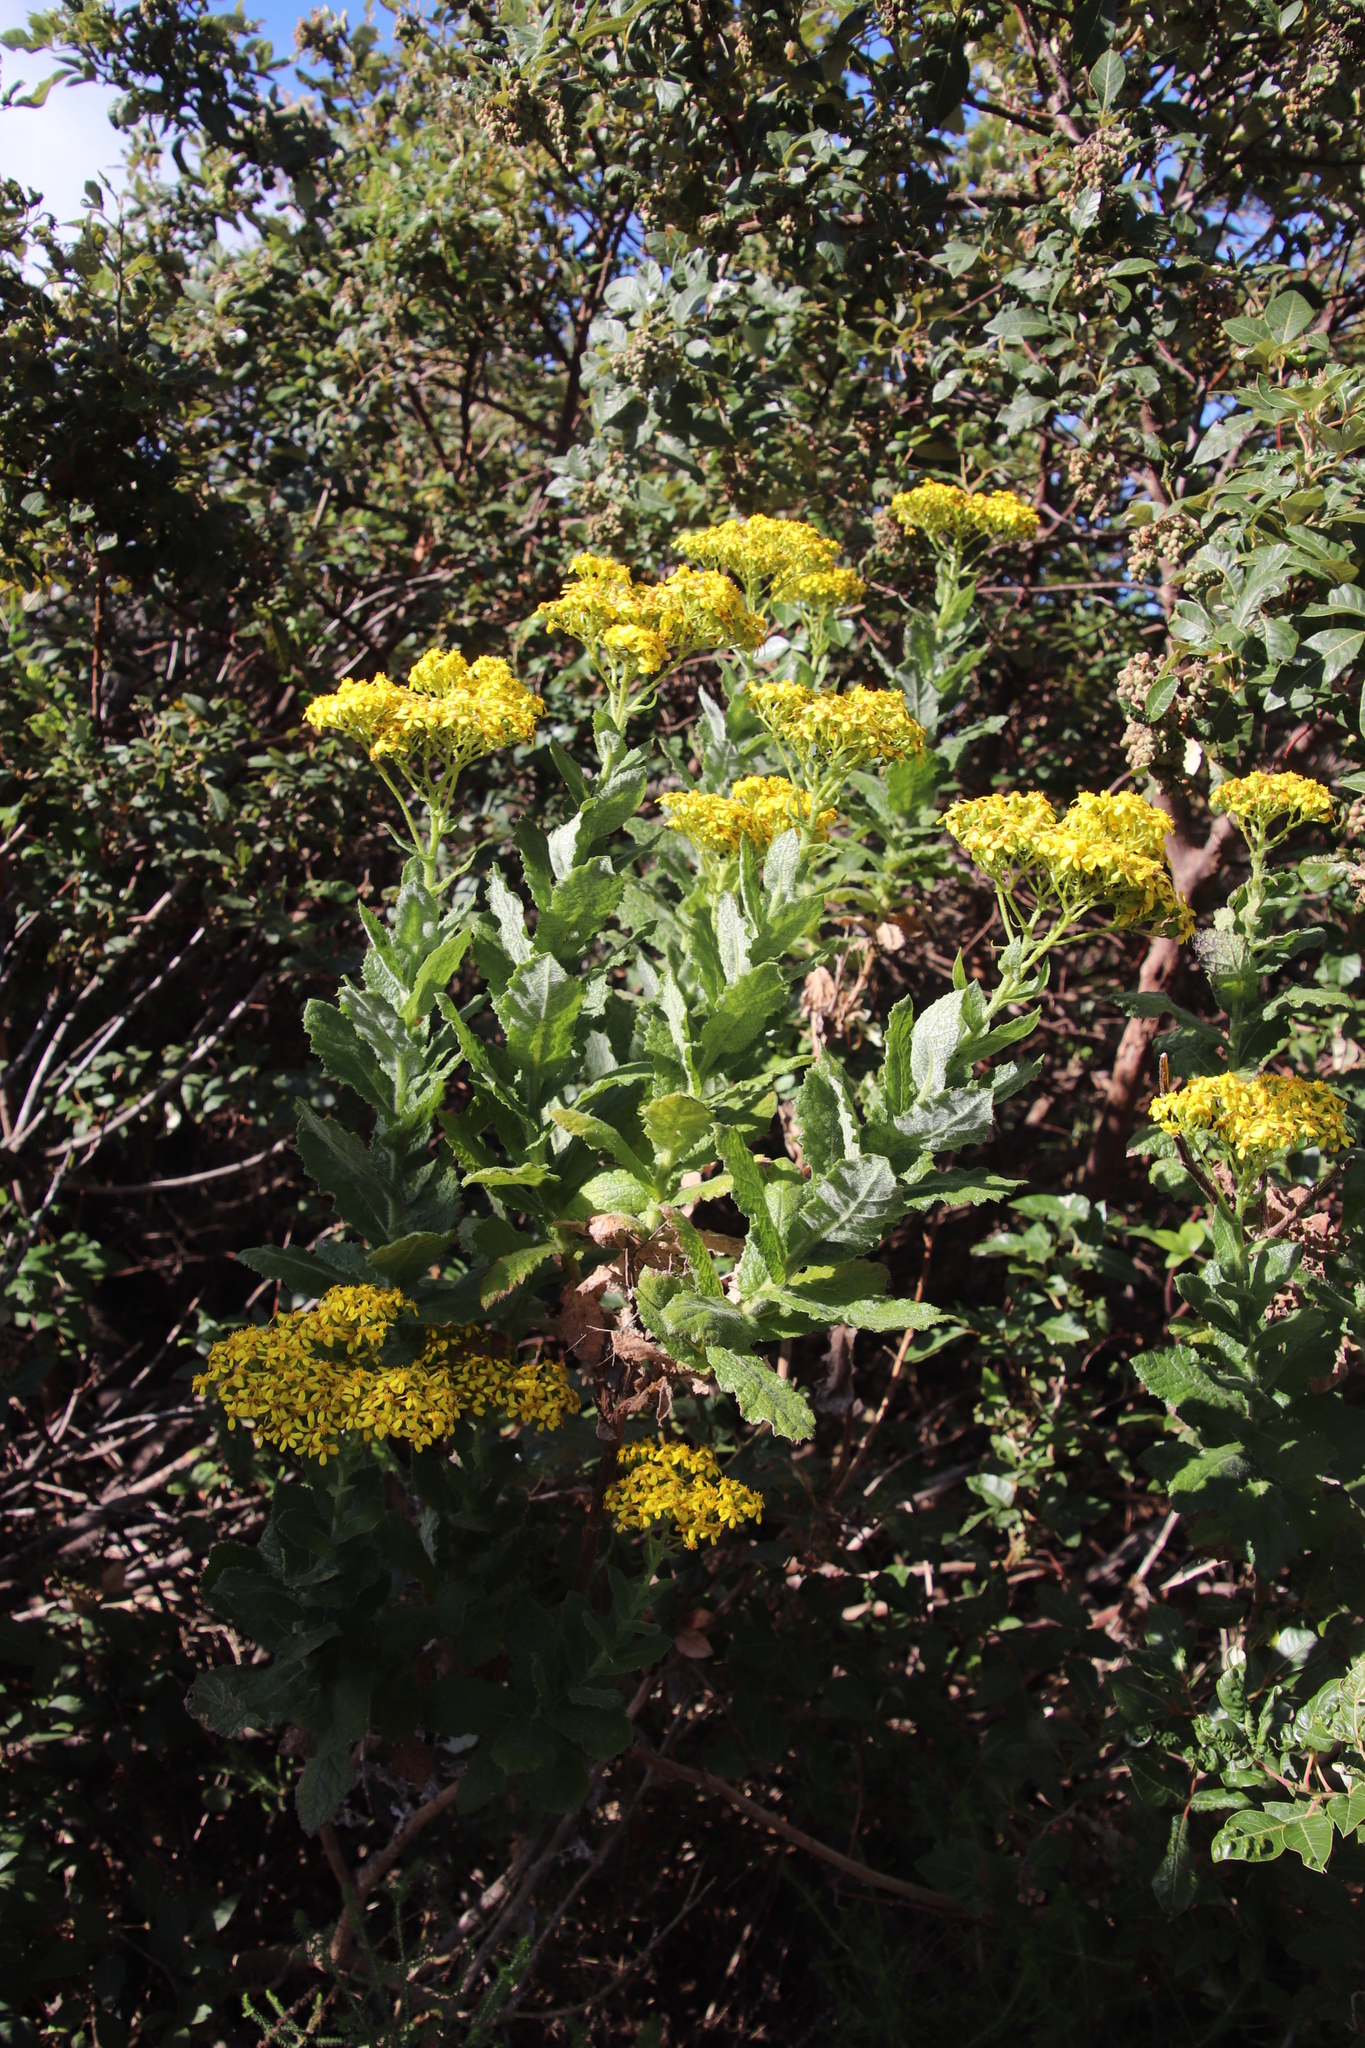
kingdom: Plantae
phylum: Tracheophyta
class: Magnoliopsida
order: Asterales
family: Asteraceae
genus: Senecio
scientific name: Senecio rigidus
